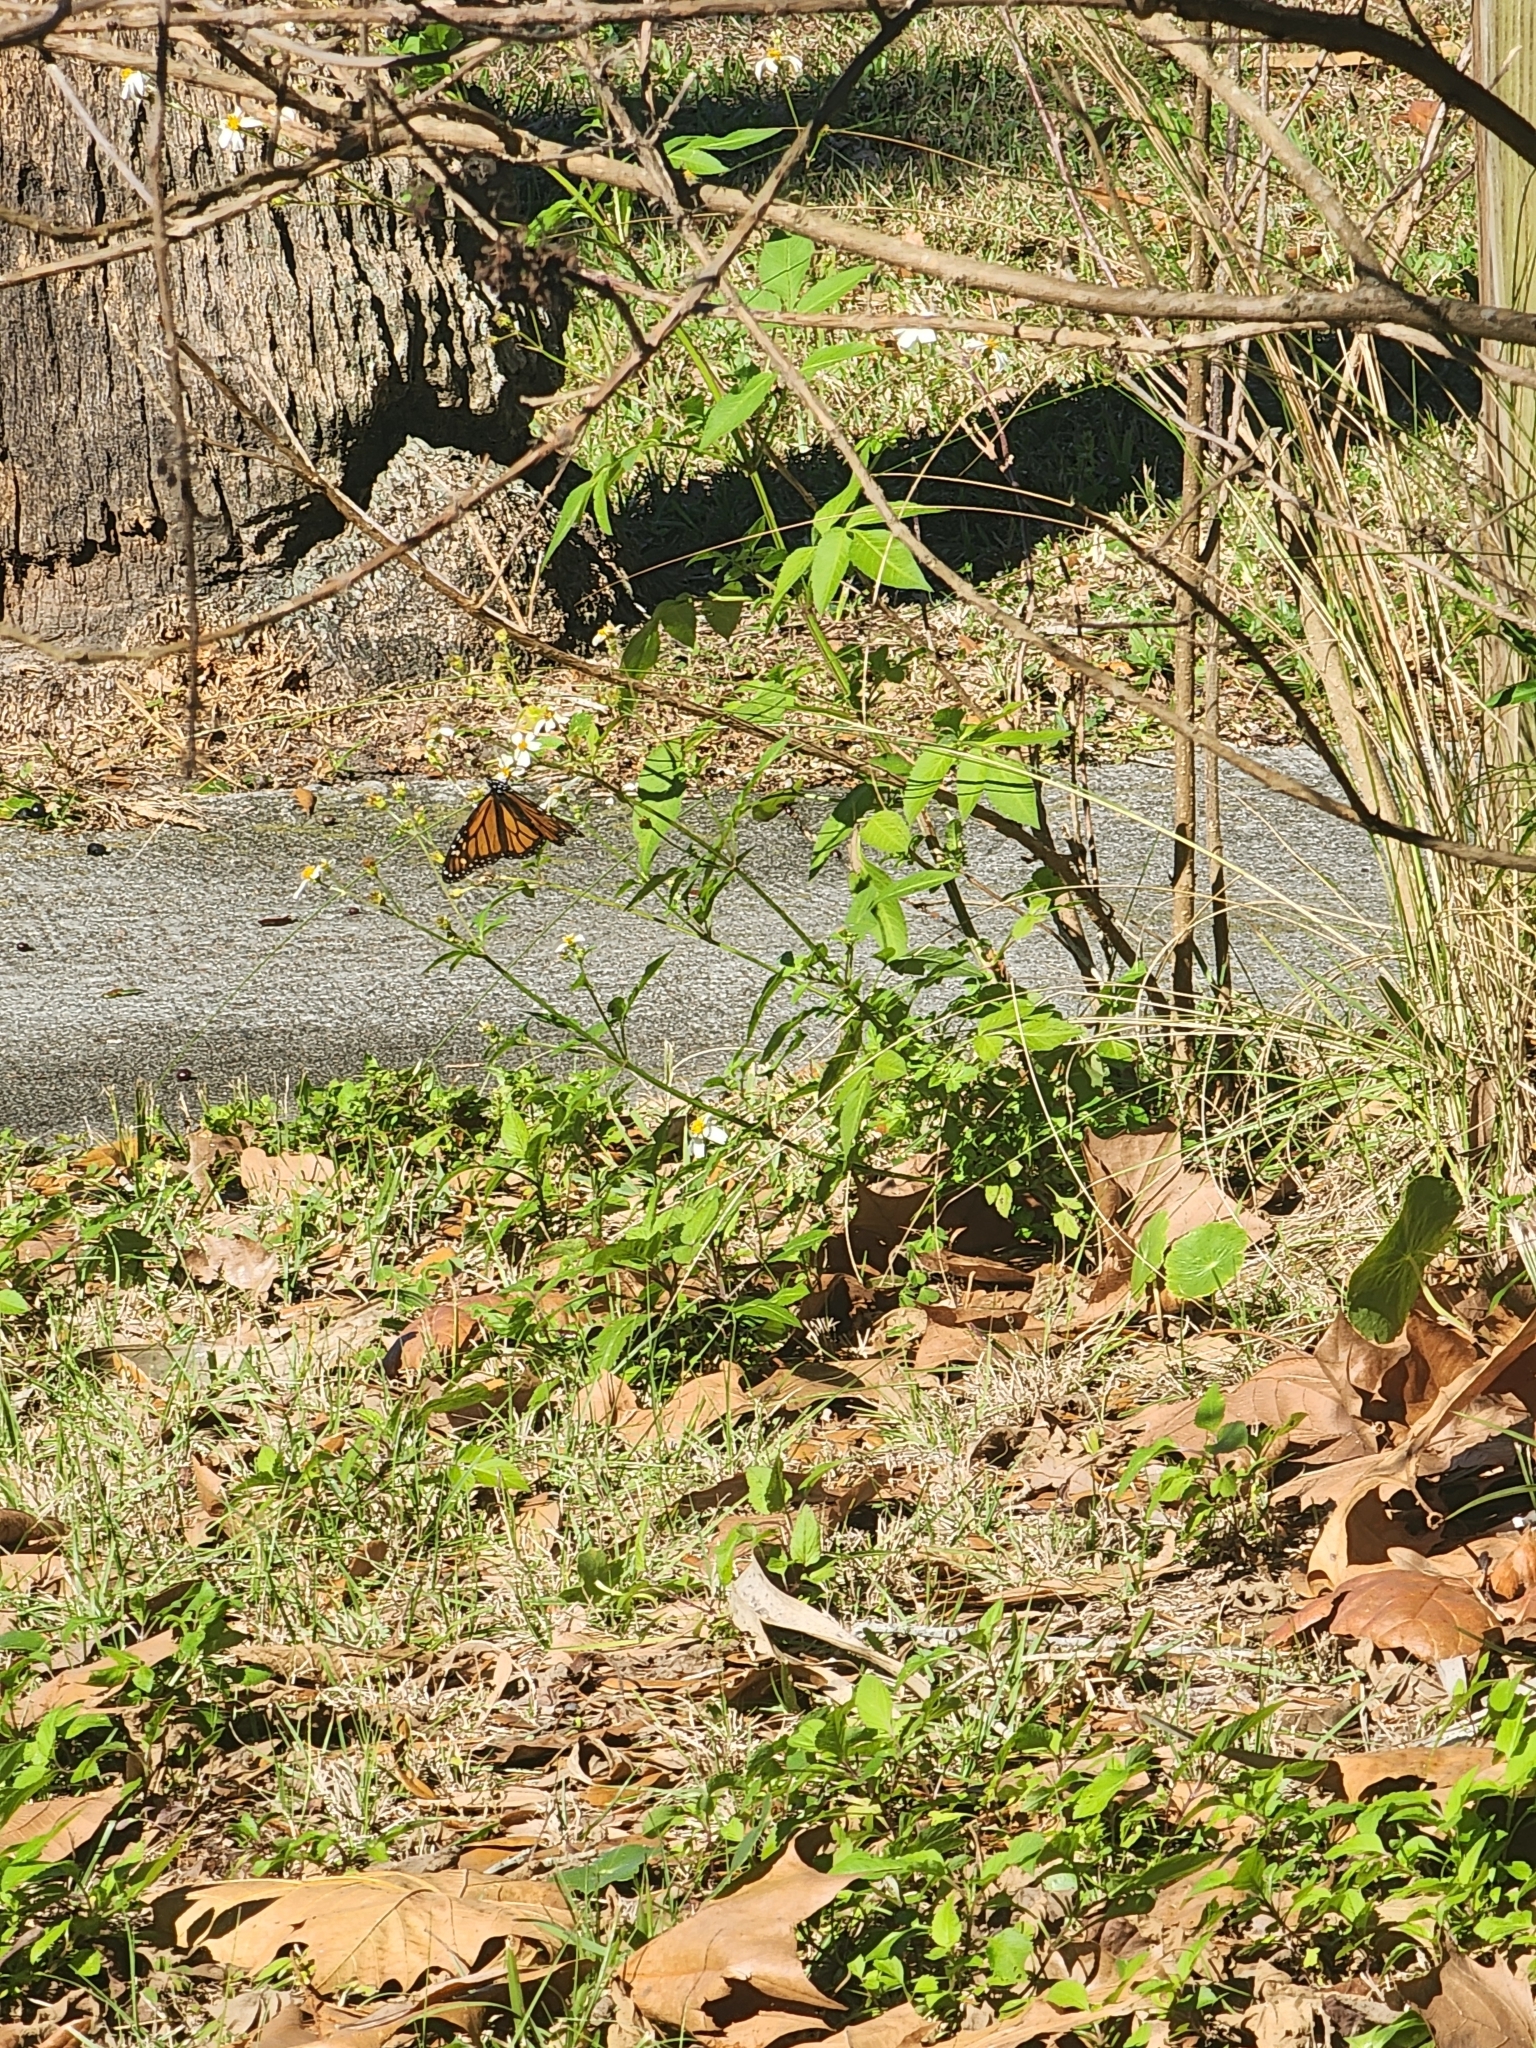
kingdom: Animalia
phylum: Arthropoda
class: Insecta
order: Lepidoptera
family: Nymphalidae
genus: Danaus
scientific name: Danaus plexippus
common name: Monarch
